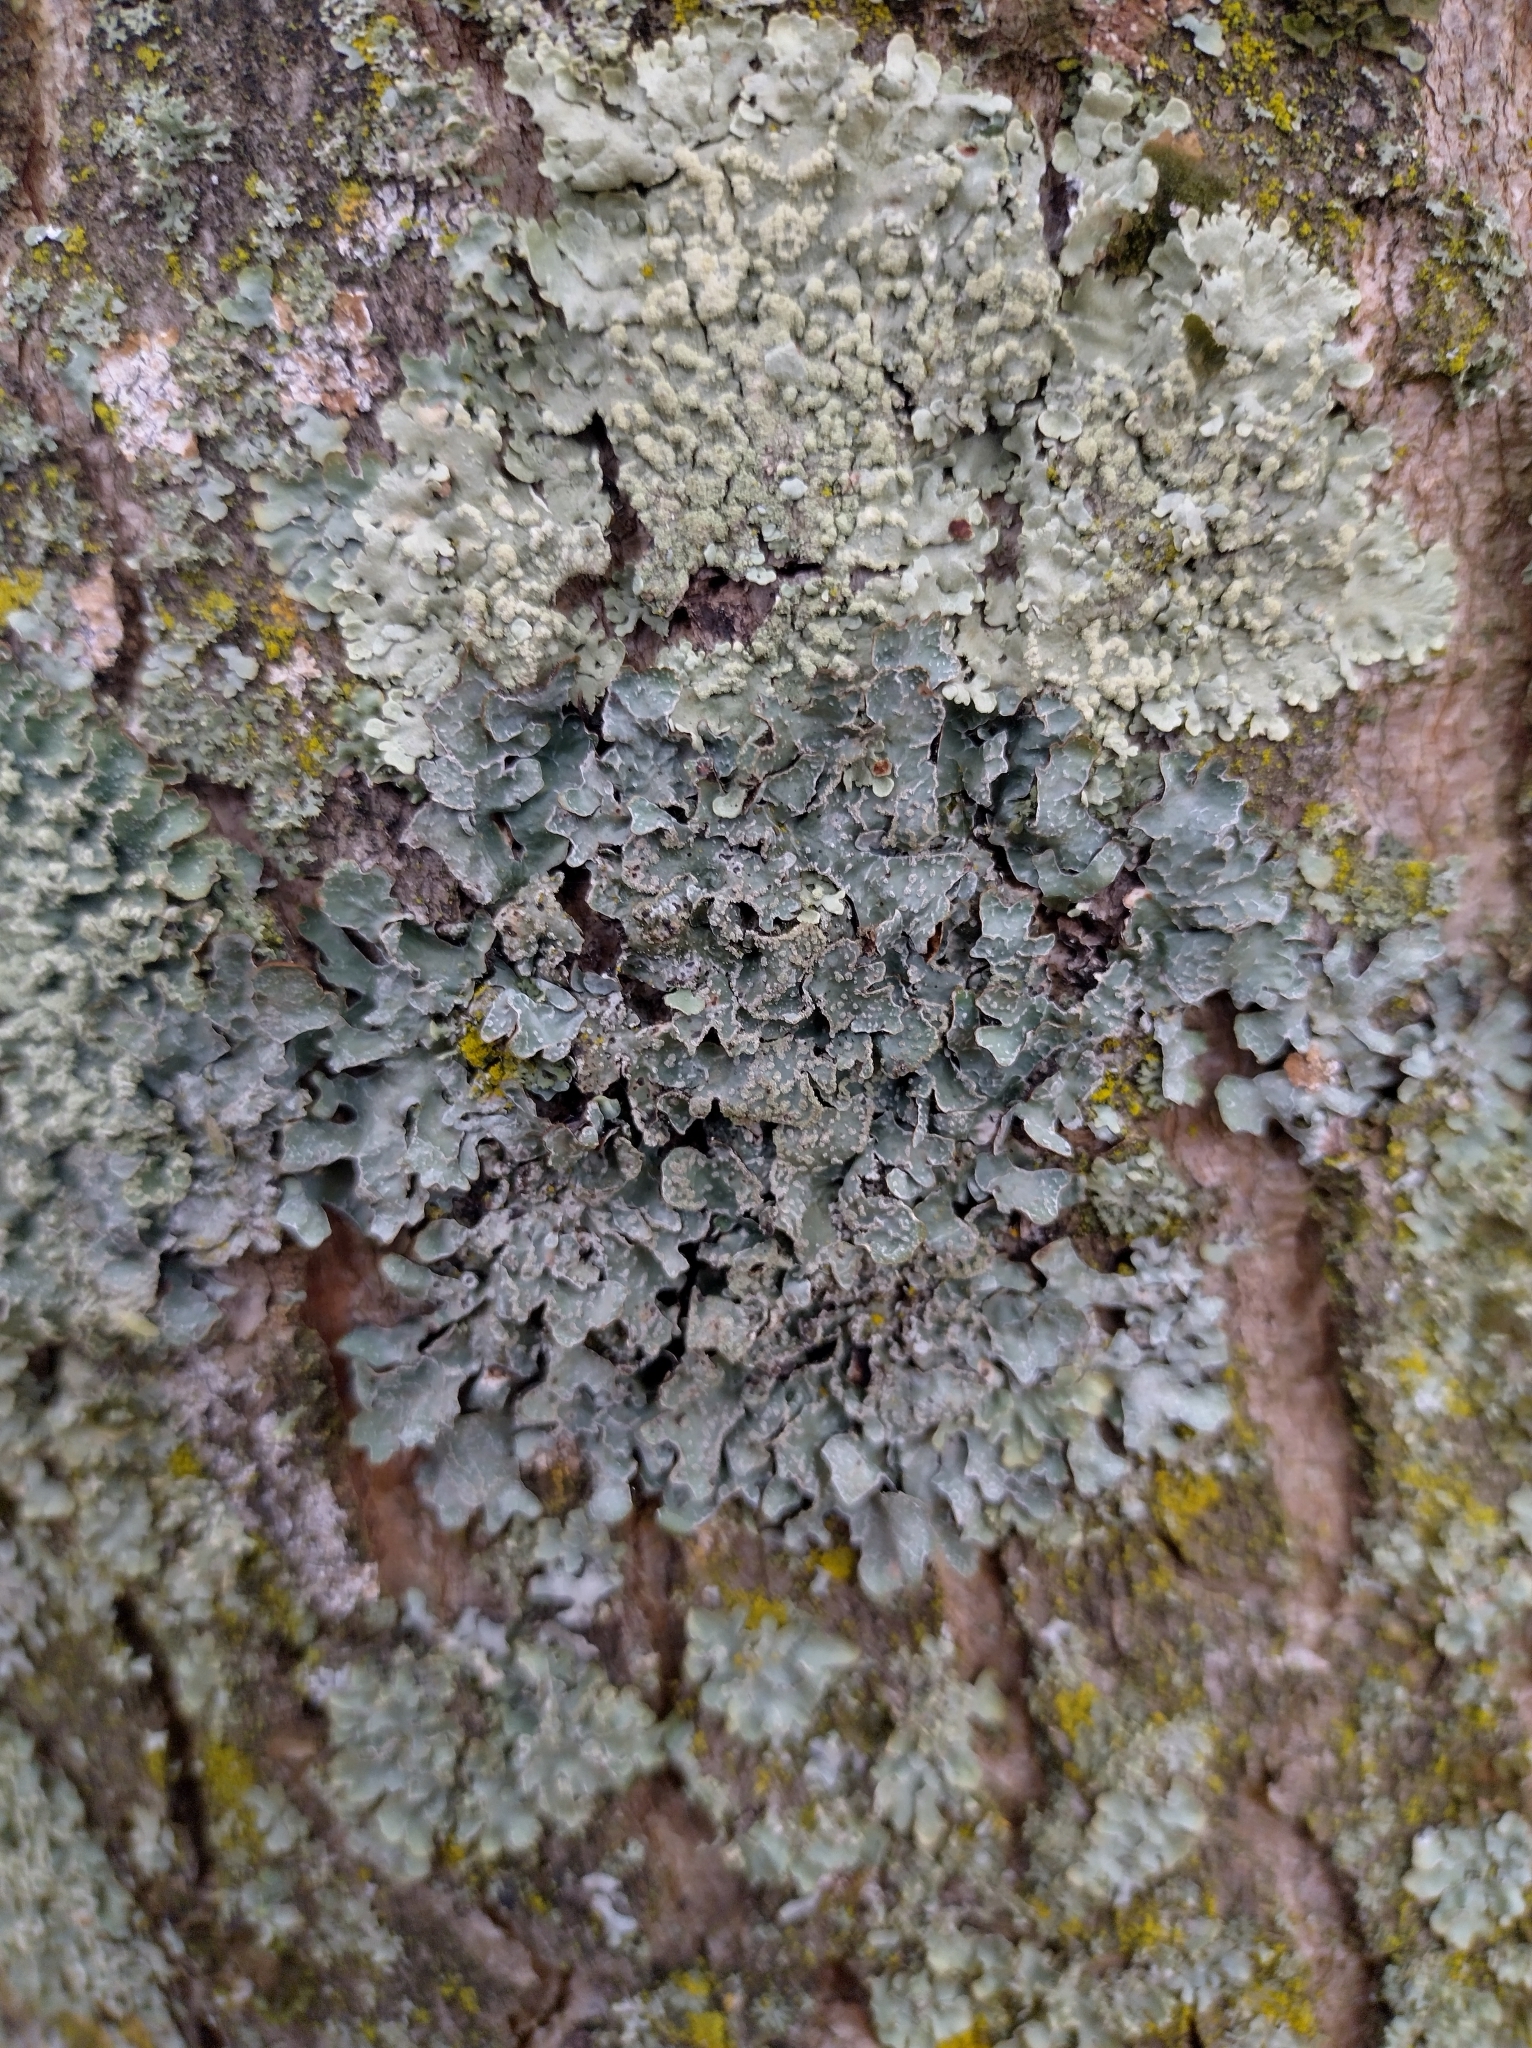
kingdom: Fungi
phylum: Ascomycota
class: Lecanoromycetes
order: Lecanorales
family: Parmeliaceae
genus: Parmelia
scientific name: Parmelia sulcata
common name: Netted shield lichen
